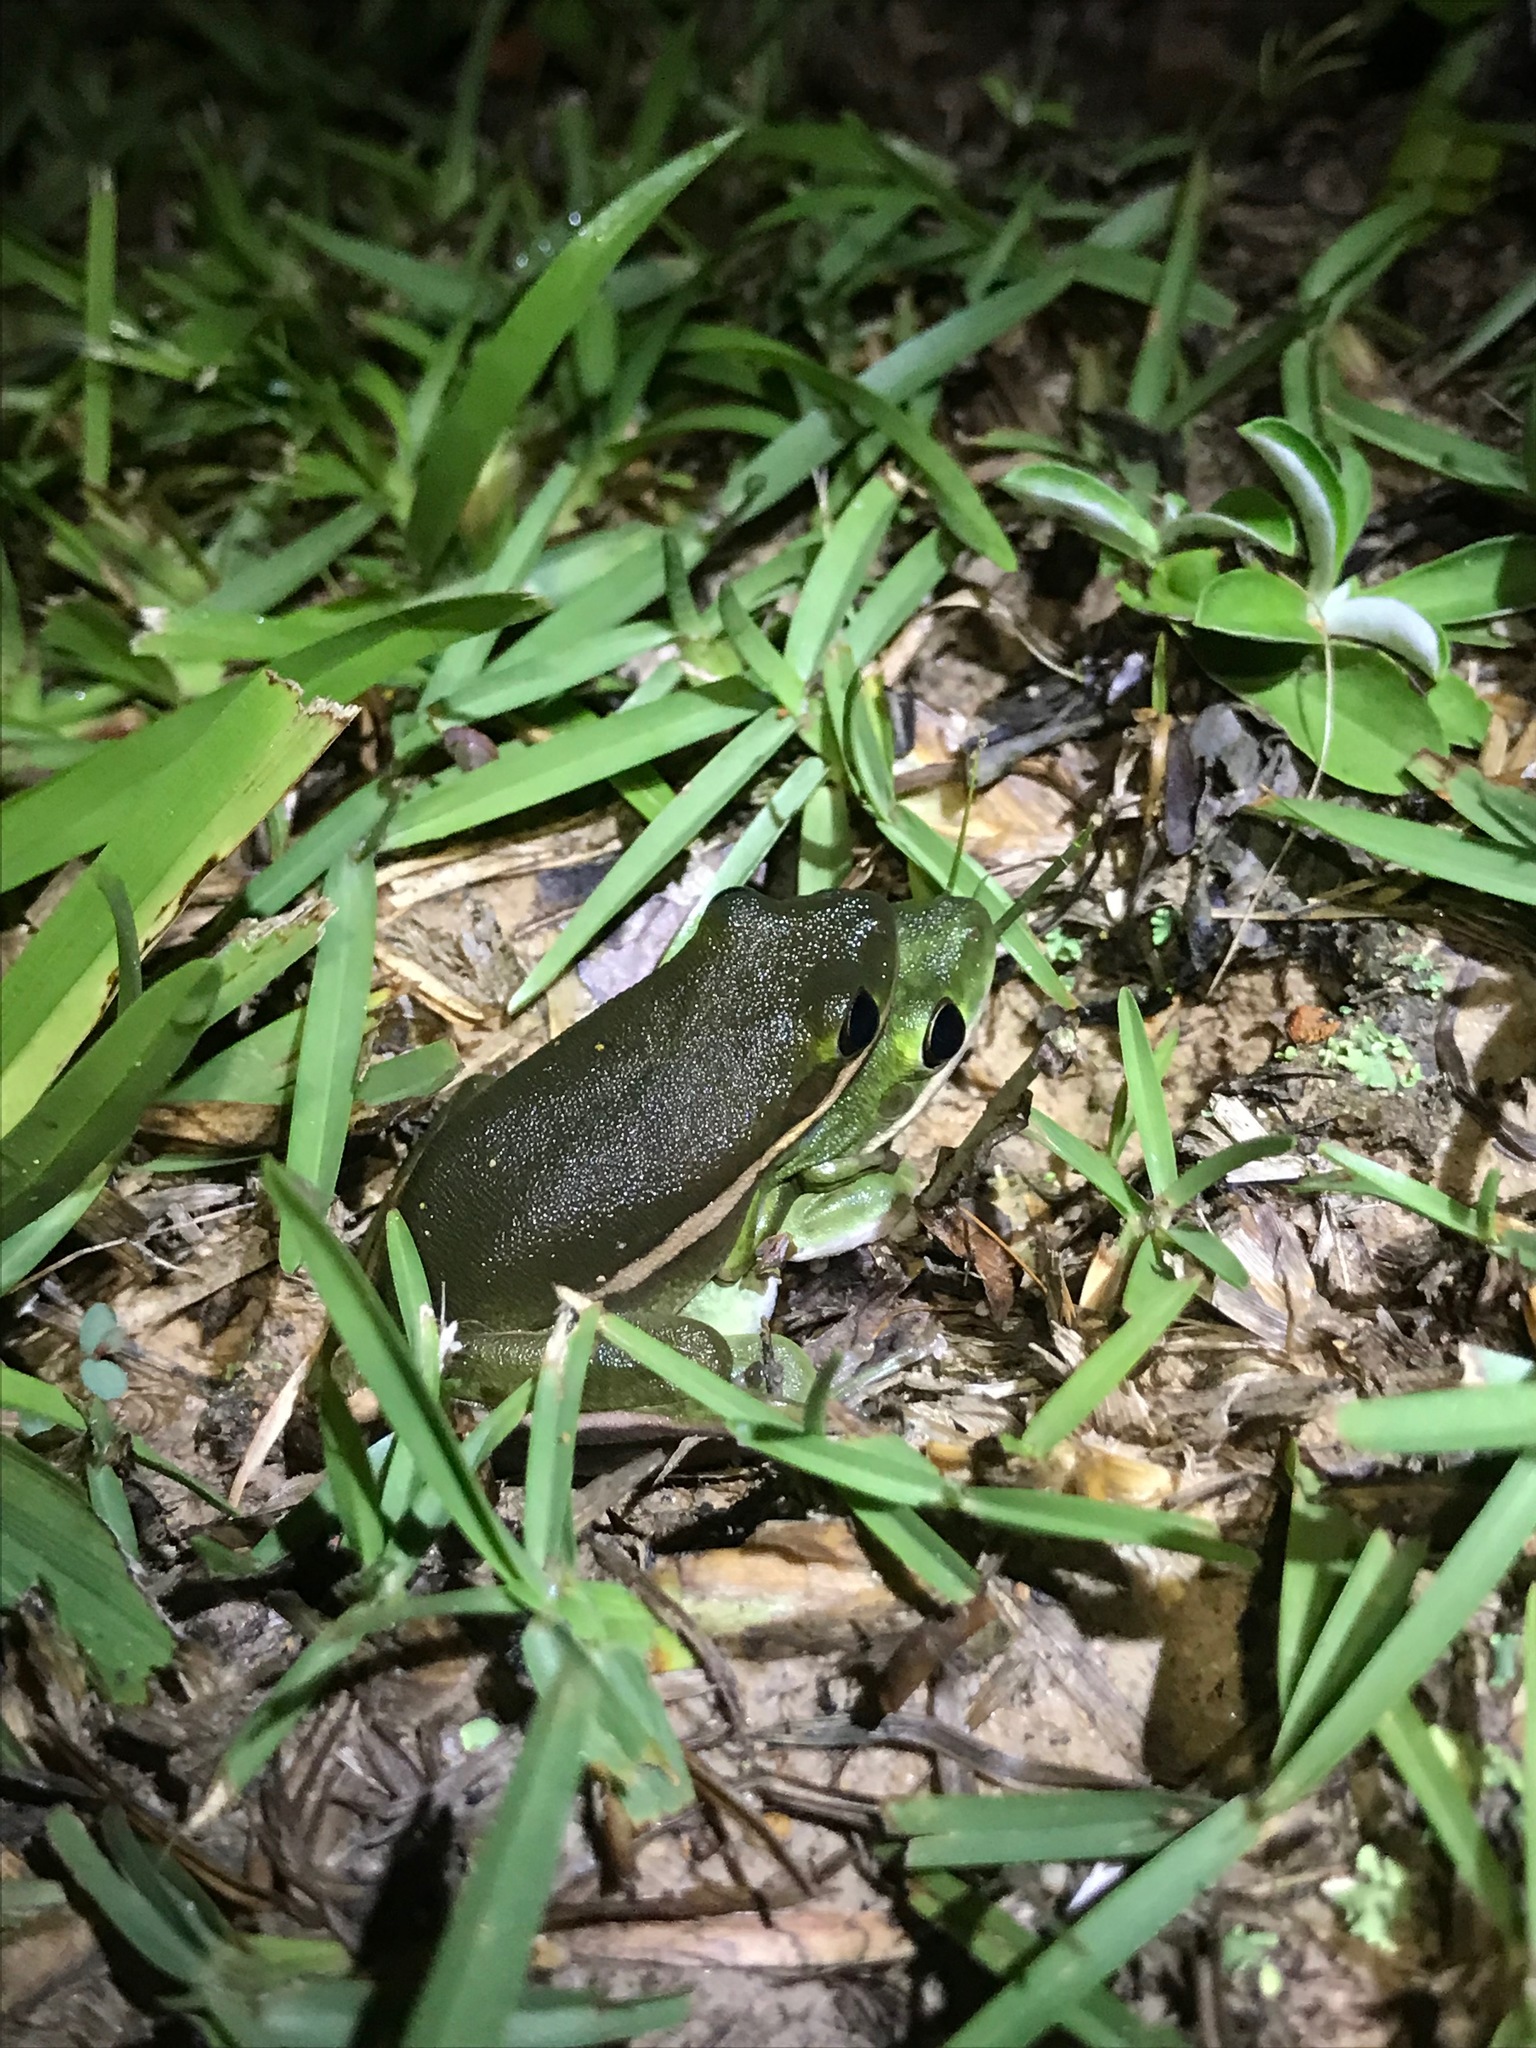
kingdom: Animalia
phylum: Chordata
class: Amphibia
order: Anura
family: Hylidae
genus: Dryophytes
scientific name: Dryophytes cinereus
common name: Green treefrog
